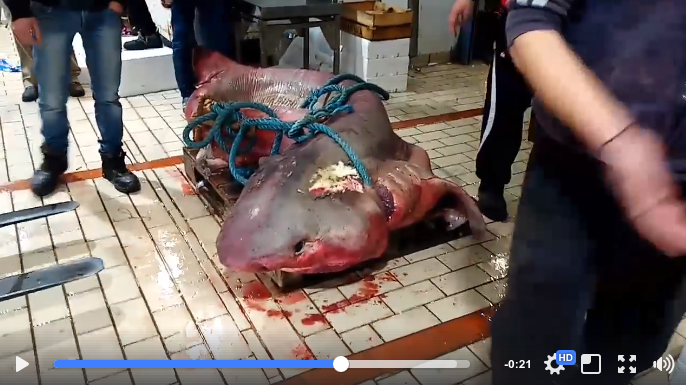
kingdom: Animalia
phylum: Chordata
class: Elasmobranchii
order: Hexanchiformes
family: Hexanchidae
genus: Hexanchus
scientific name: Hexanchus griseus
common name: Bluntnose sixgill shark
